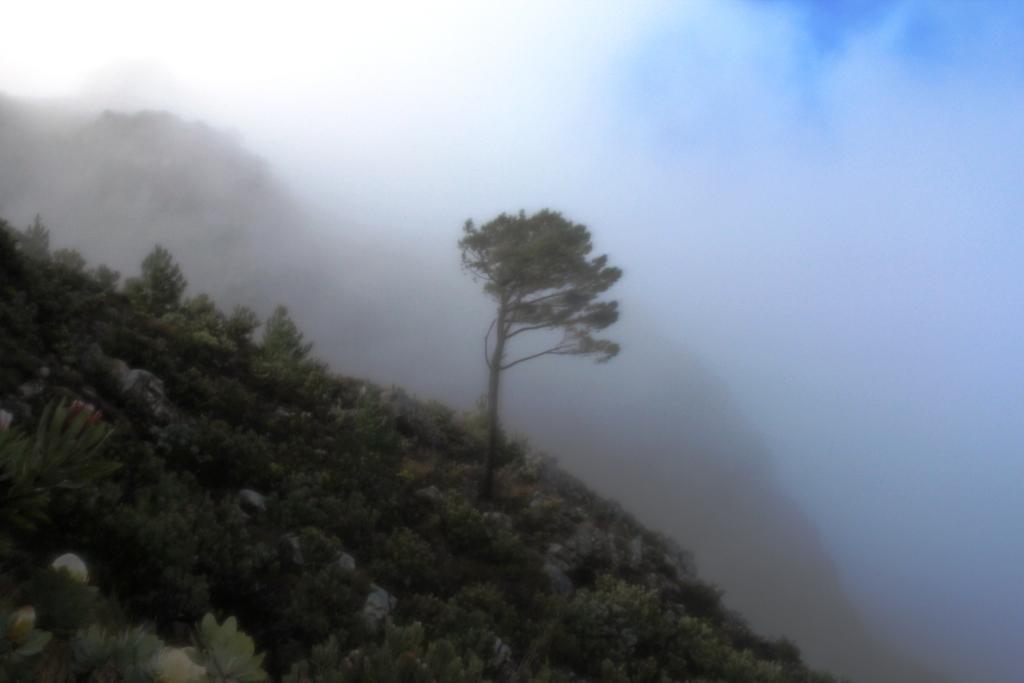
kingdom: Plantae
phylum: Tracheophyta
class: Pinopsida
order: Pinales
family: Pinaceae
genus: Pinus
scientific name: Pinus pinaster
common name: Maritime pine
